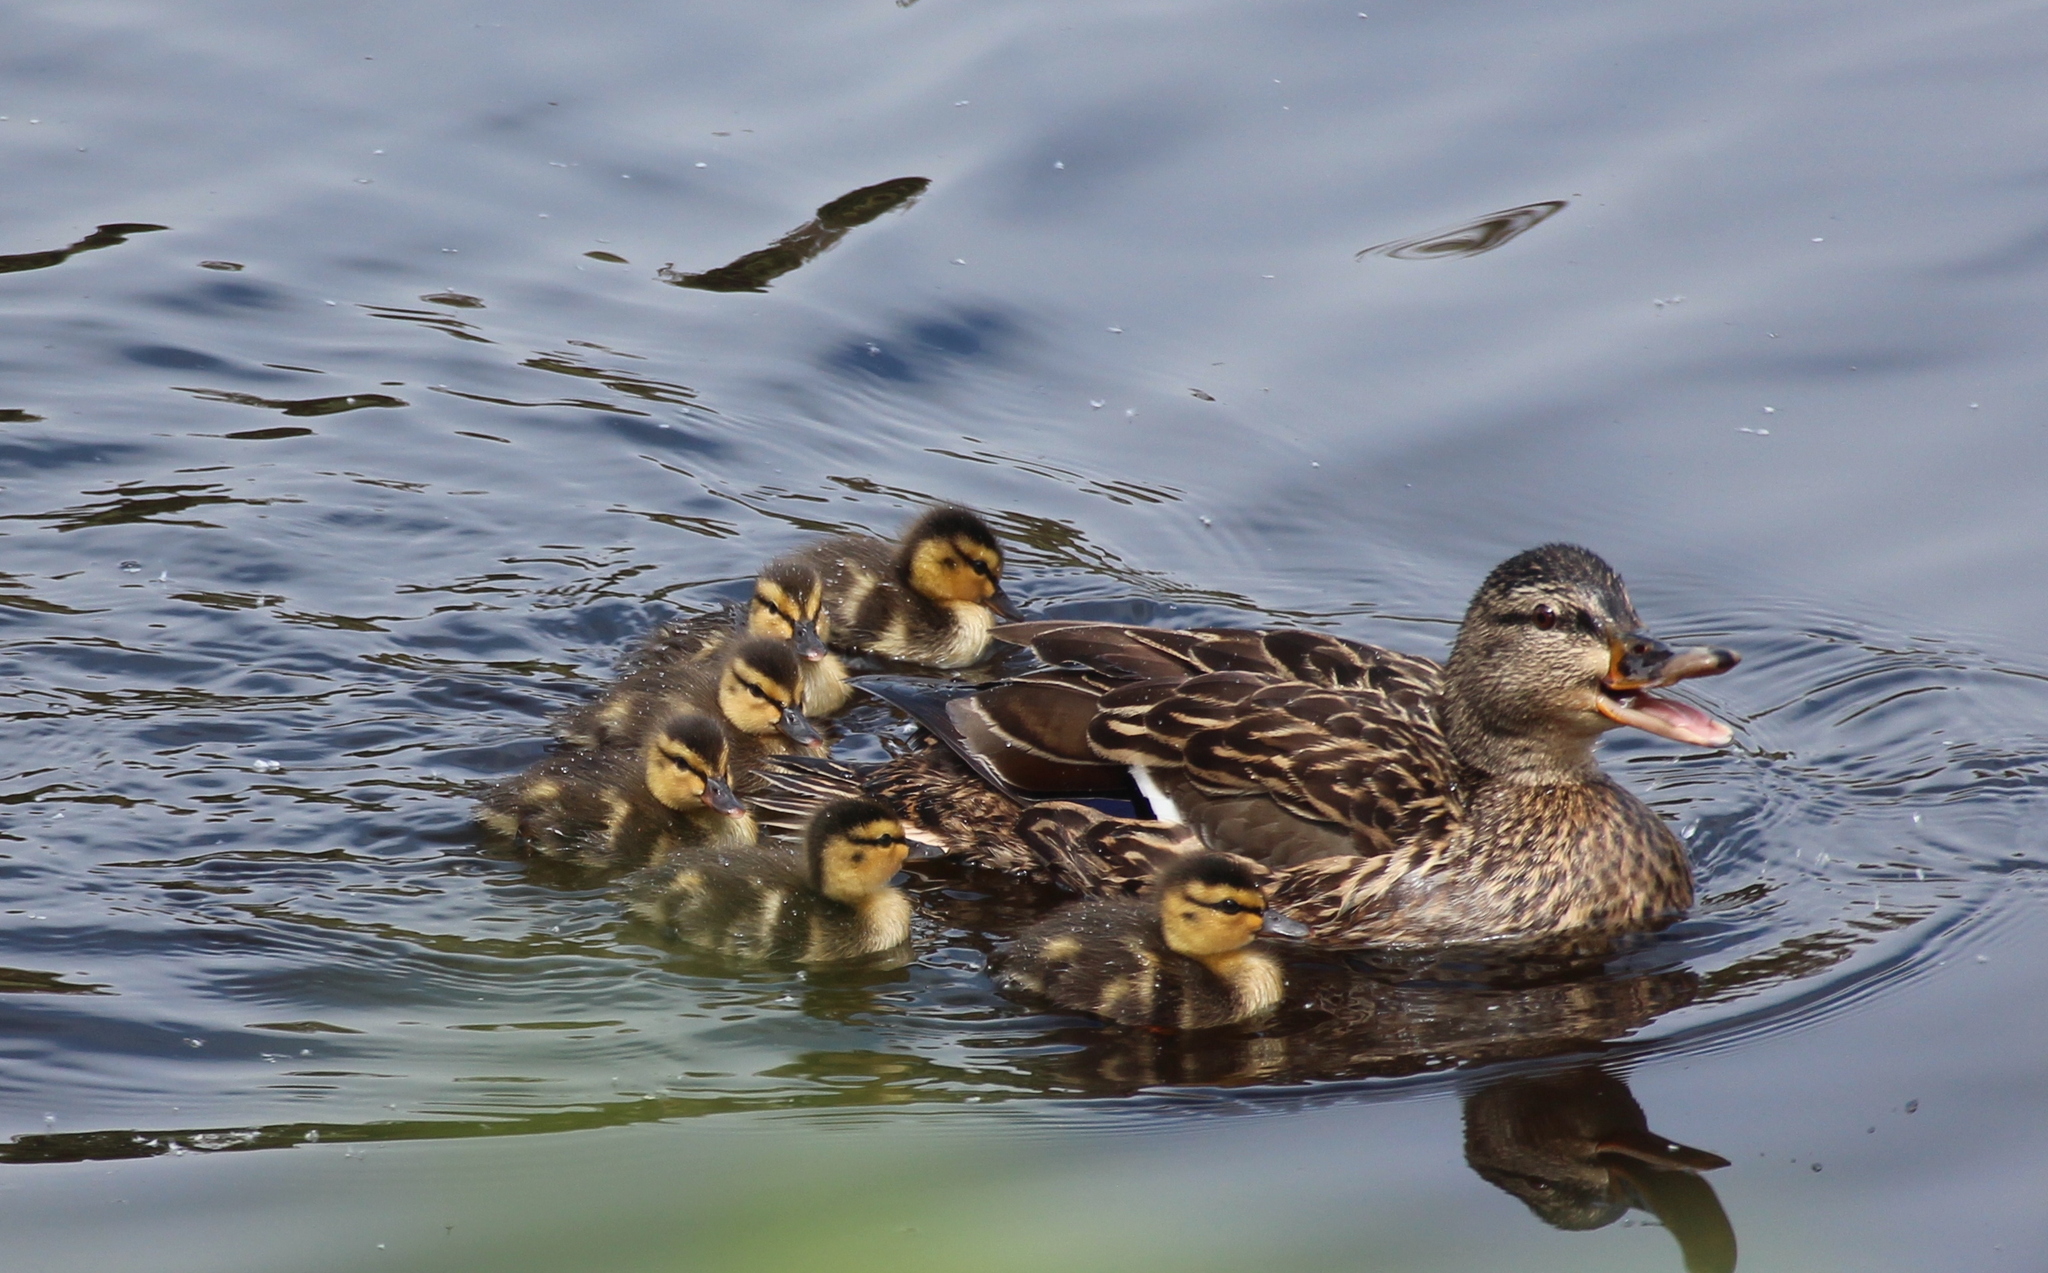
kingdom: Animalia
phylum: Chordata
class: Aves
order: Anseriformes
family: Anatidae
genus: Anas
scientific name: Anas platyrhynchos
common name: Mallard
